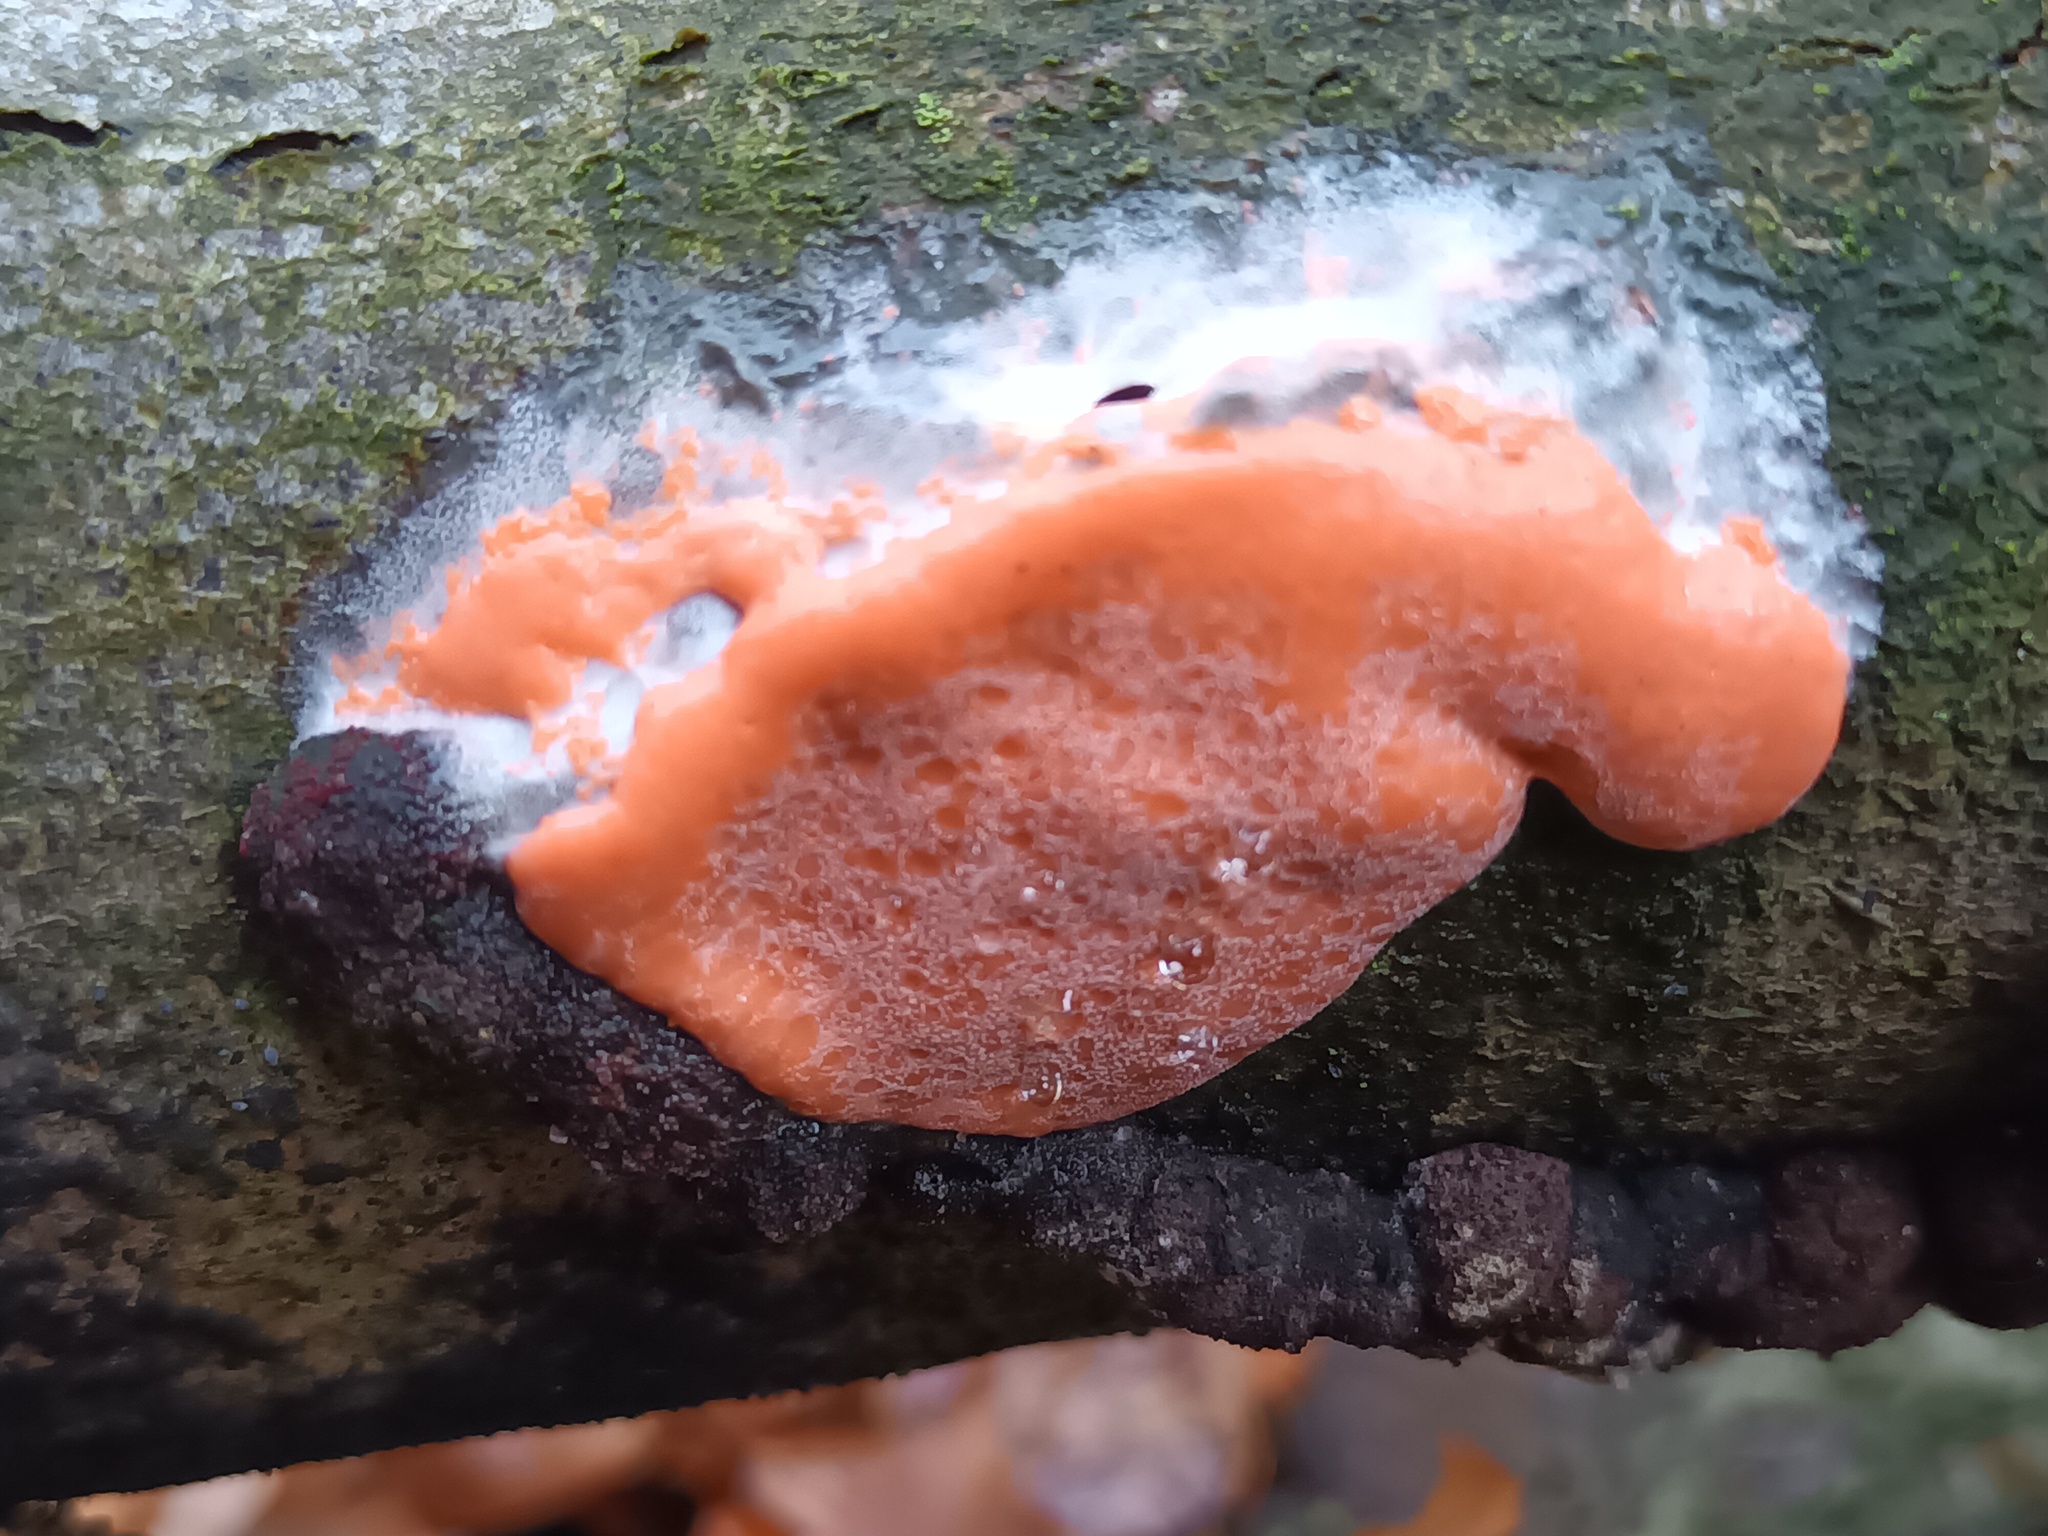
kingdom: Protozoa
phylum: Mycetozoa
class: Myxomycetes
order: Trichiales
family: Dictydiaethaliaceae
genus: Dictydiaethalium
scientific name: Dictydiaethalium plumbeum
